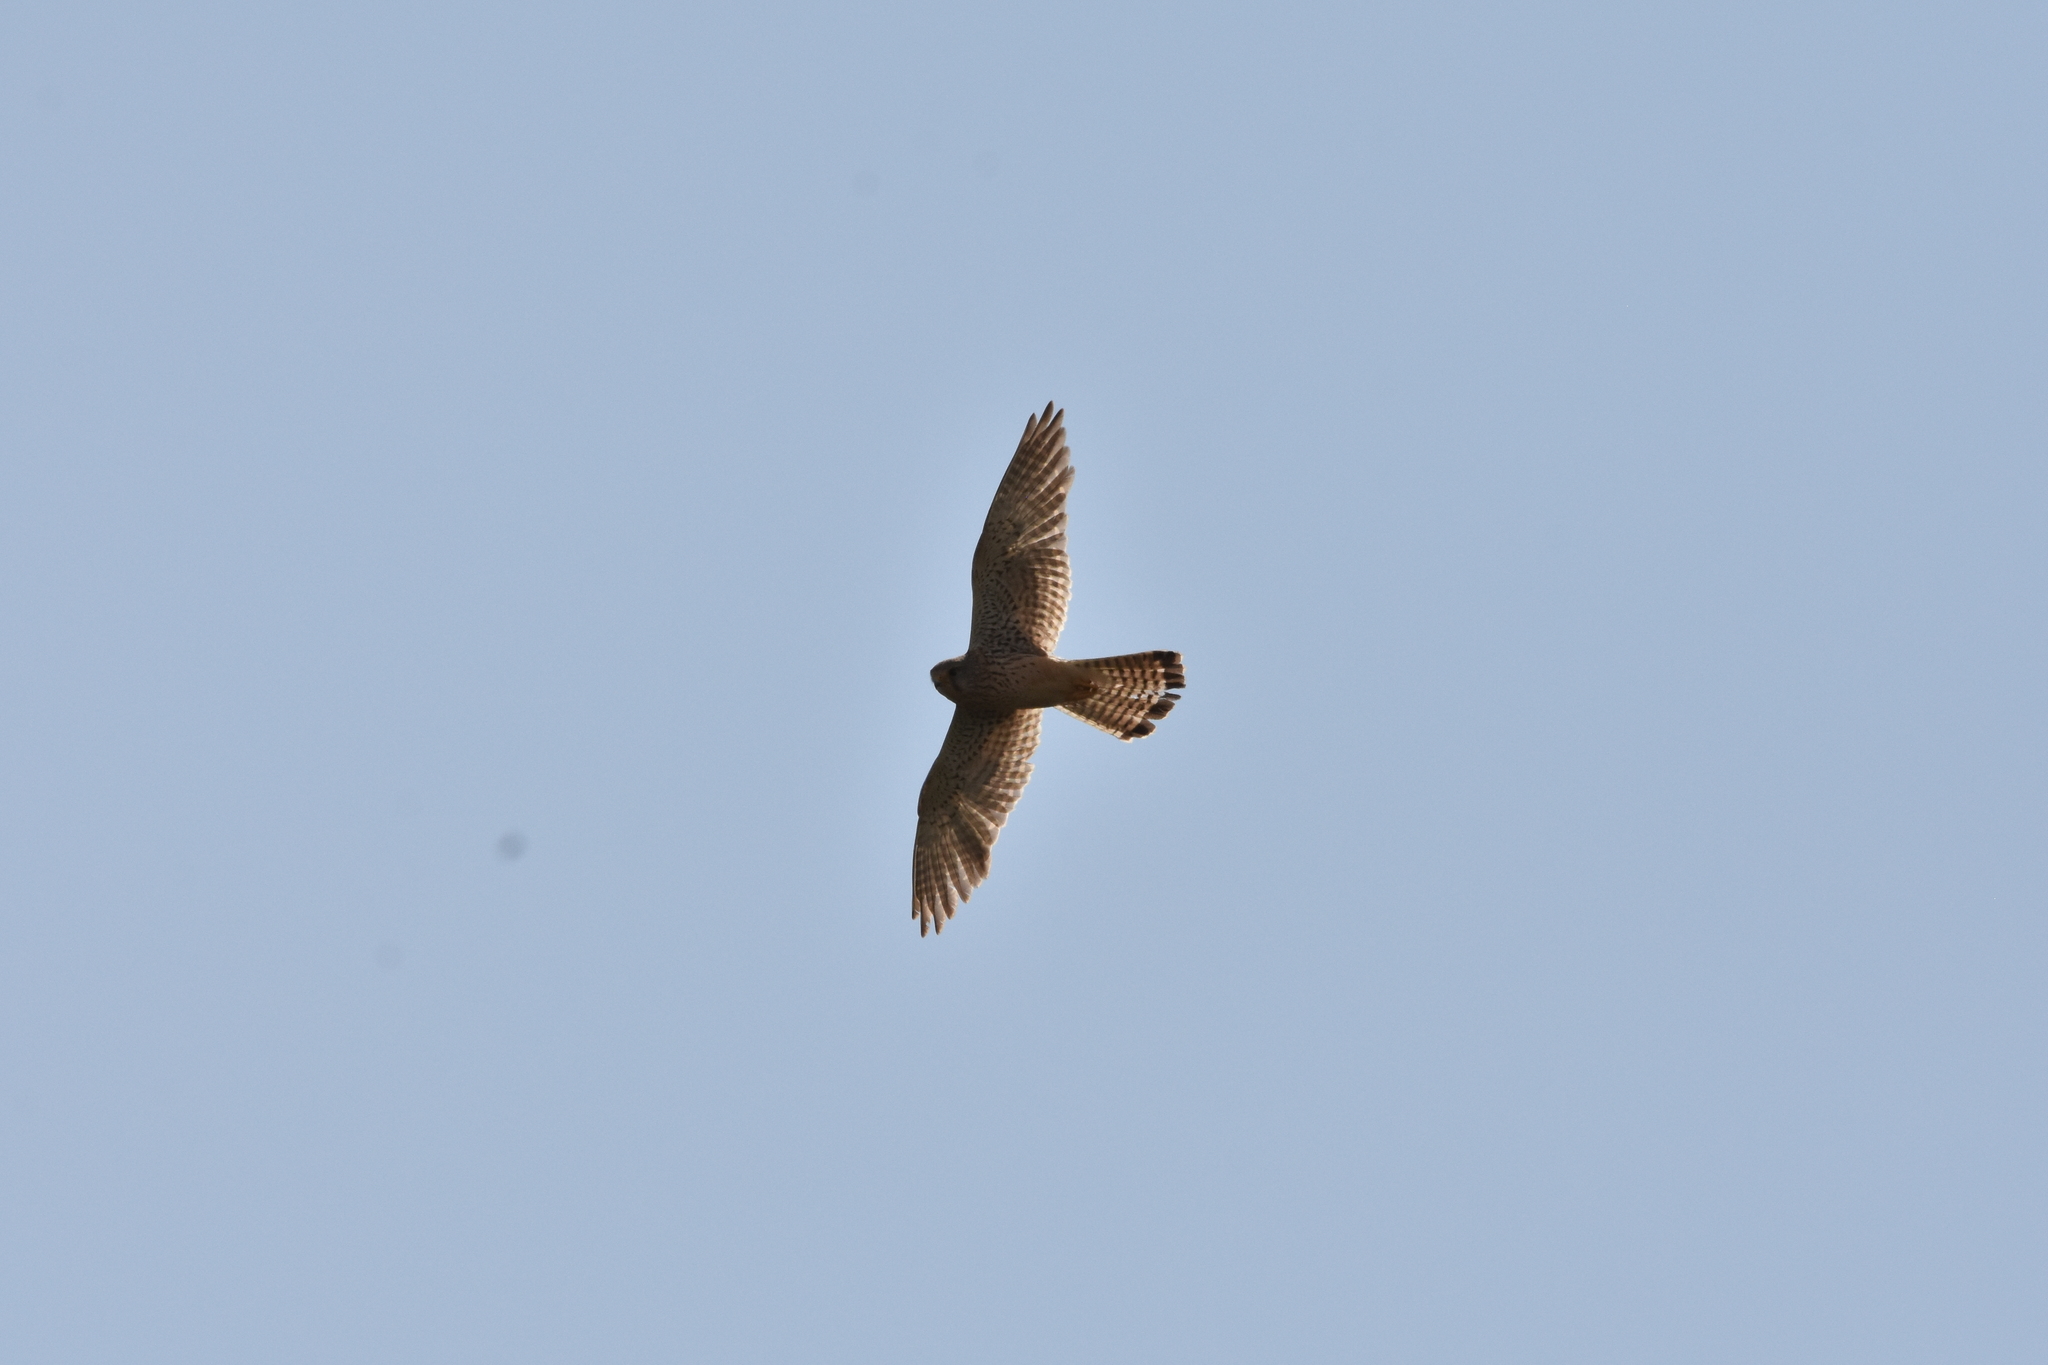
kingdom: Animalia
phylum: Chordata
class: Aves
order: Falconiformes
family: Falconidae
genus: Falco
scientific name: Falco tinnunculus
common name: Common kestrel
